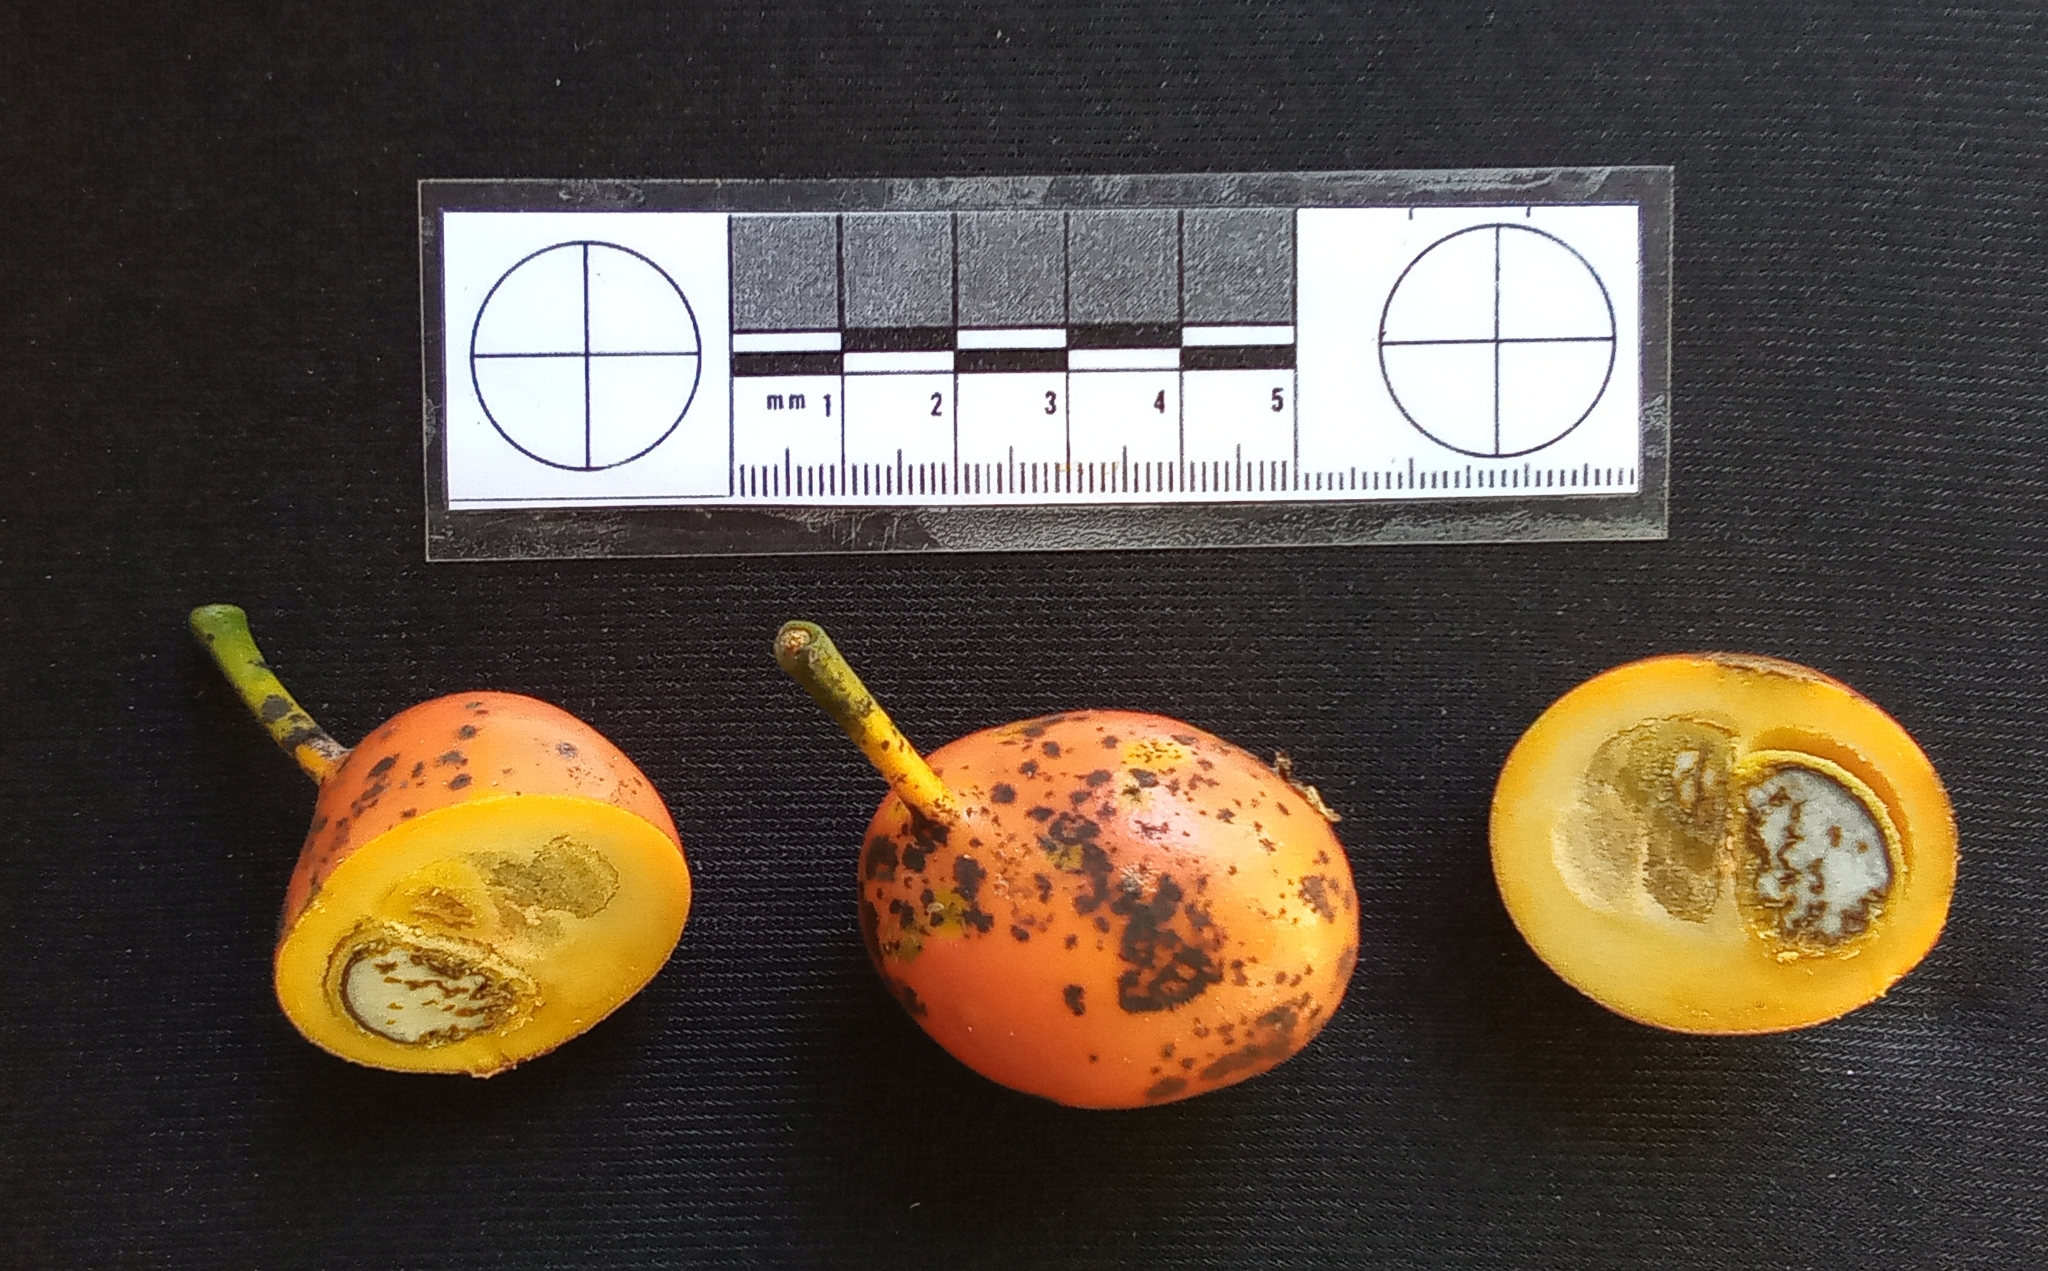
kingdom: Plantae
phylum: Tracheophyta
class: Magnoliopsida
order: Austrobaileyales
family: Austrobaileyaceae
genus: Austrobaileya
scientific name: Austrobaileya scandens
